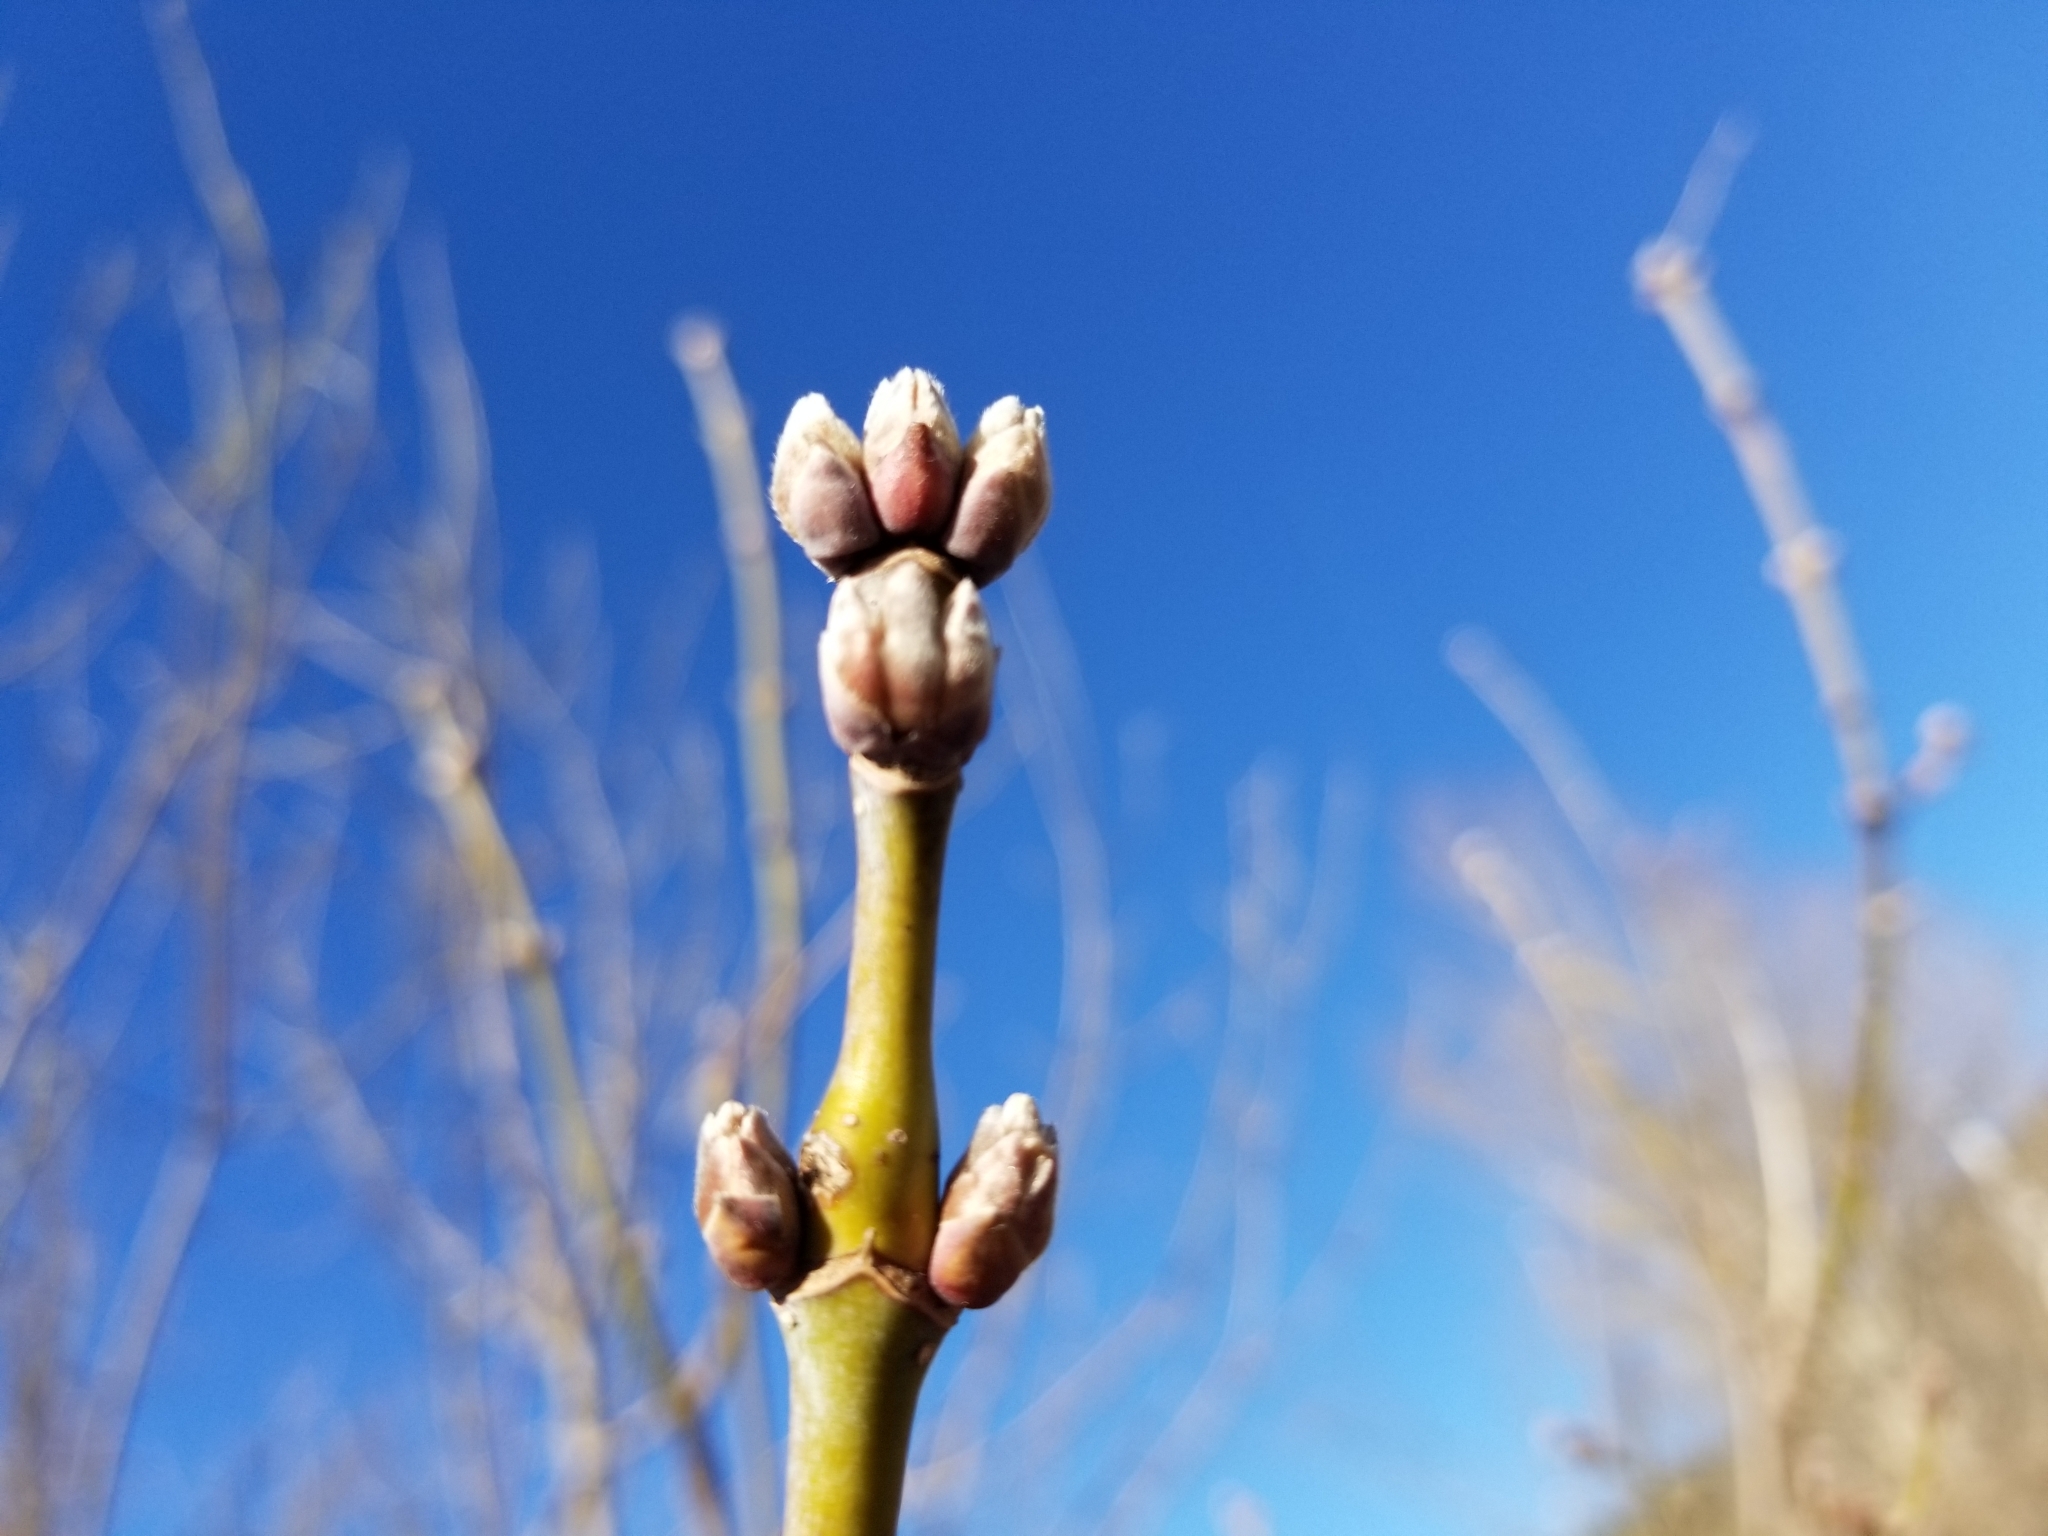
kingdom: Plantae
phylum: Tracheophyta
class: Magnoliopsida
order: Sapindales
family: Sapindaceae
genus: Acer
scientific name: Acer negundo
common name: Ashleaf maple
